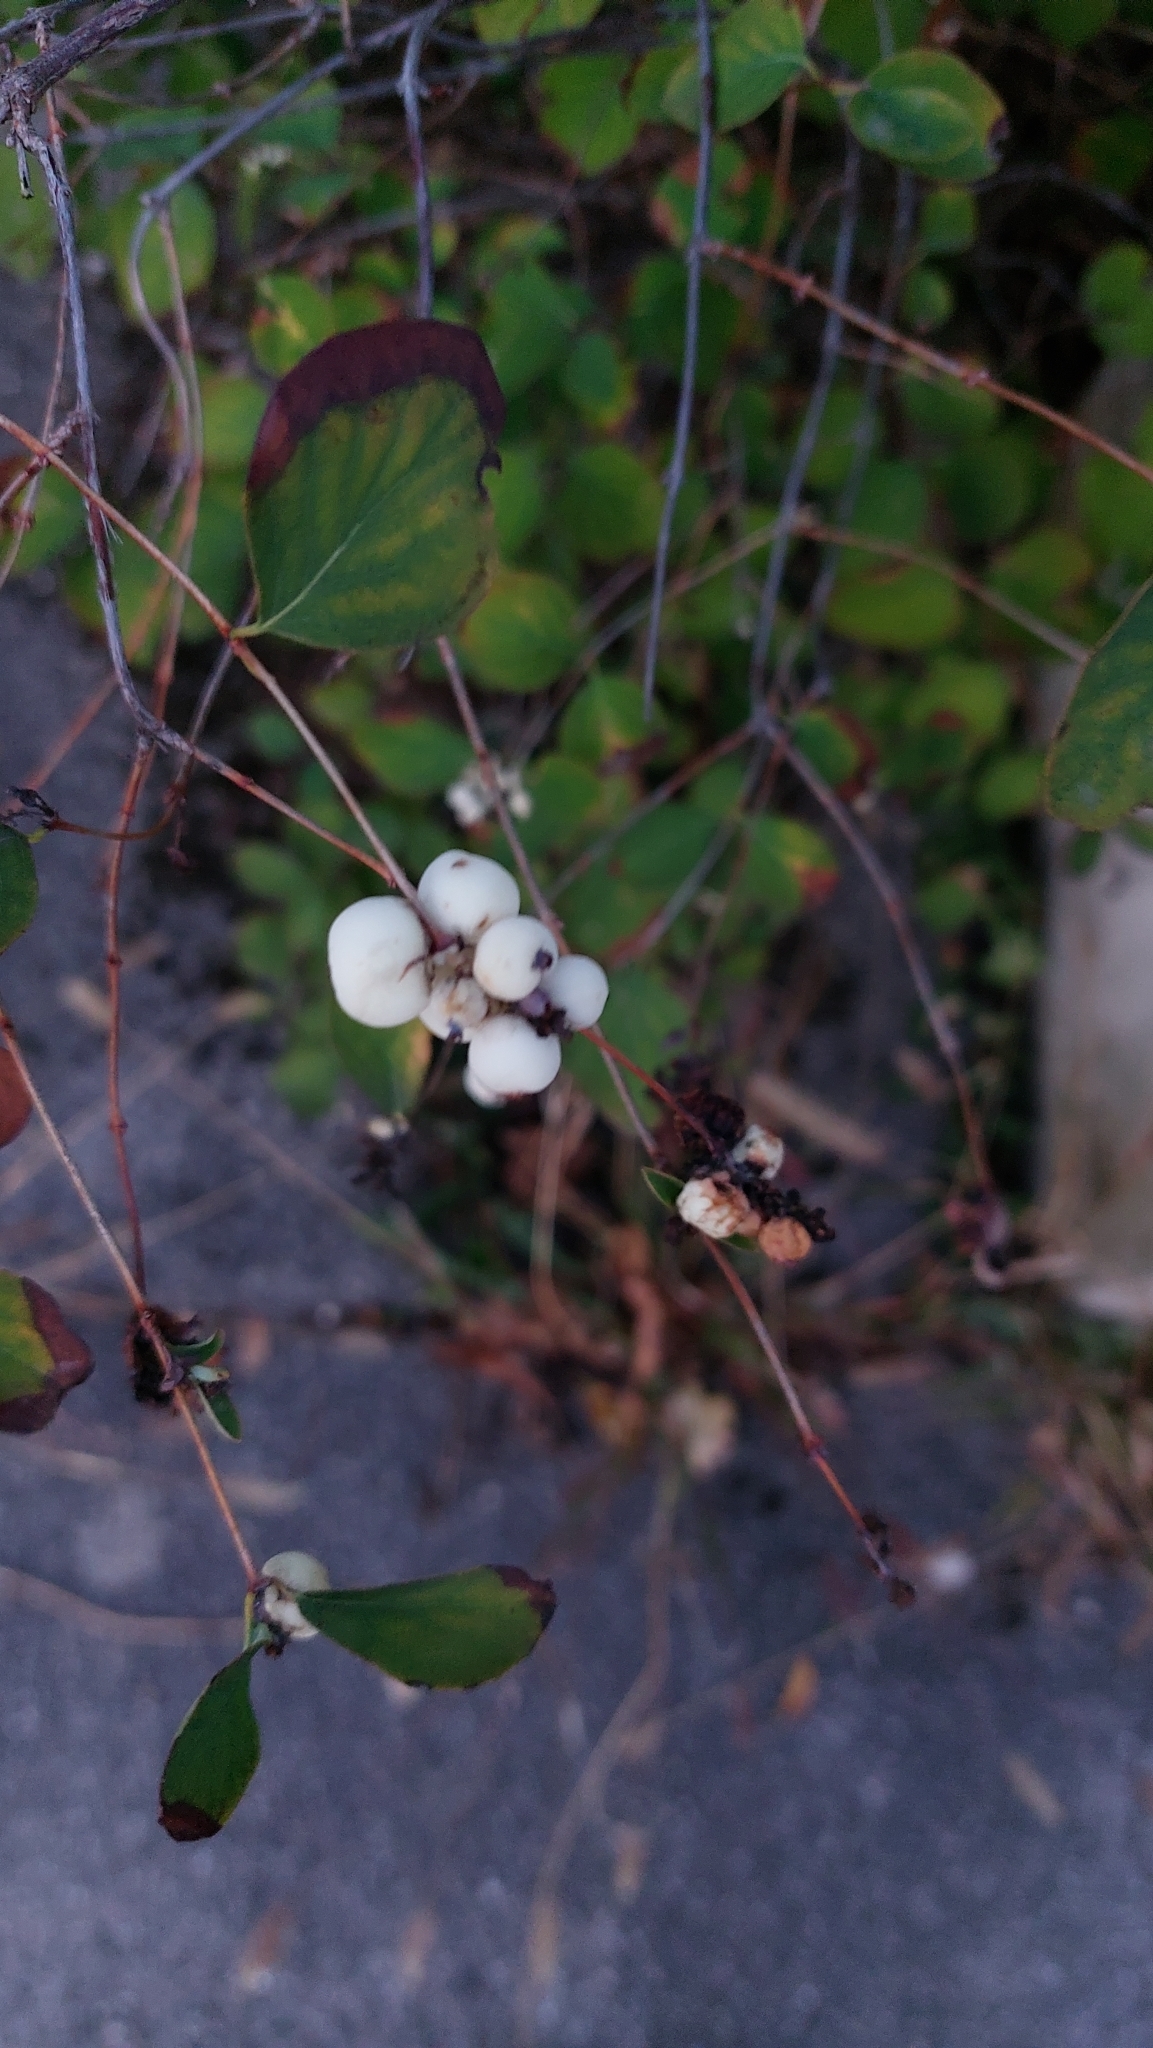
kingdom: Plantae
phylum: Tracheophyta
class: Magnoliopsida
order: Dipsacales
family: Caprifoliaceae
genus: Symphoricarpos
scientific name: Symphoricarpos albus
